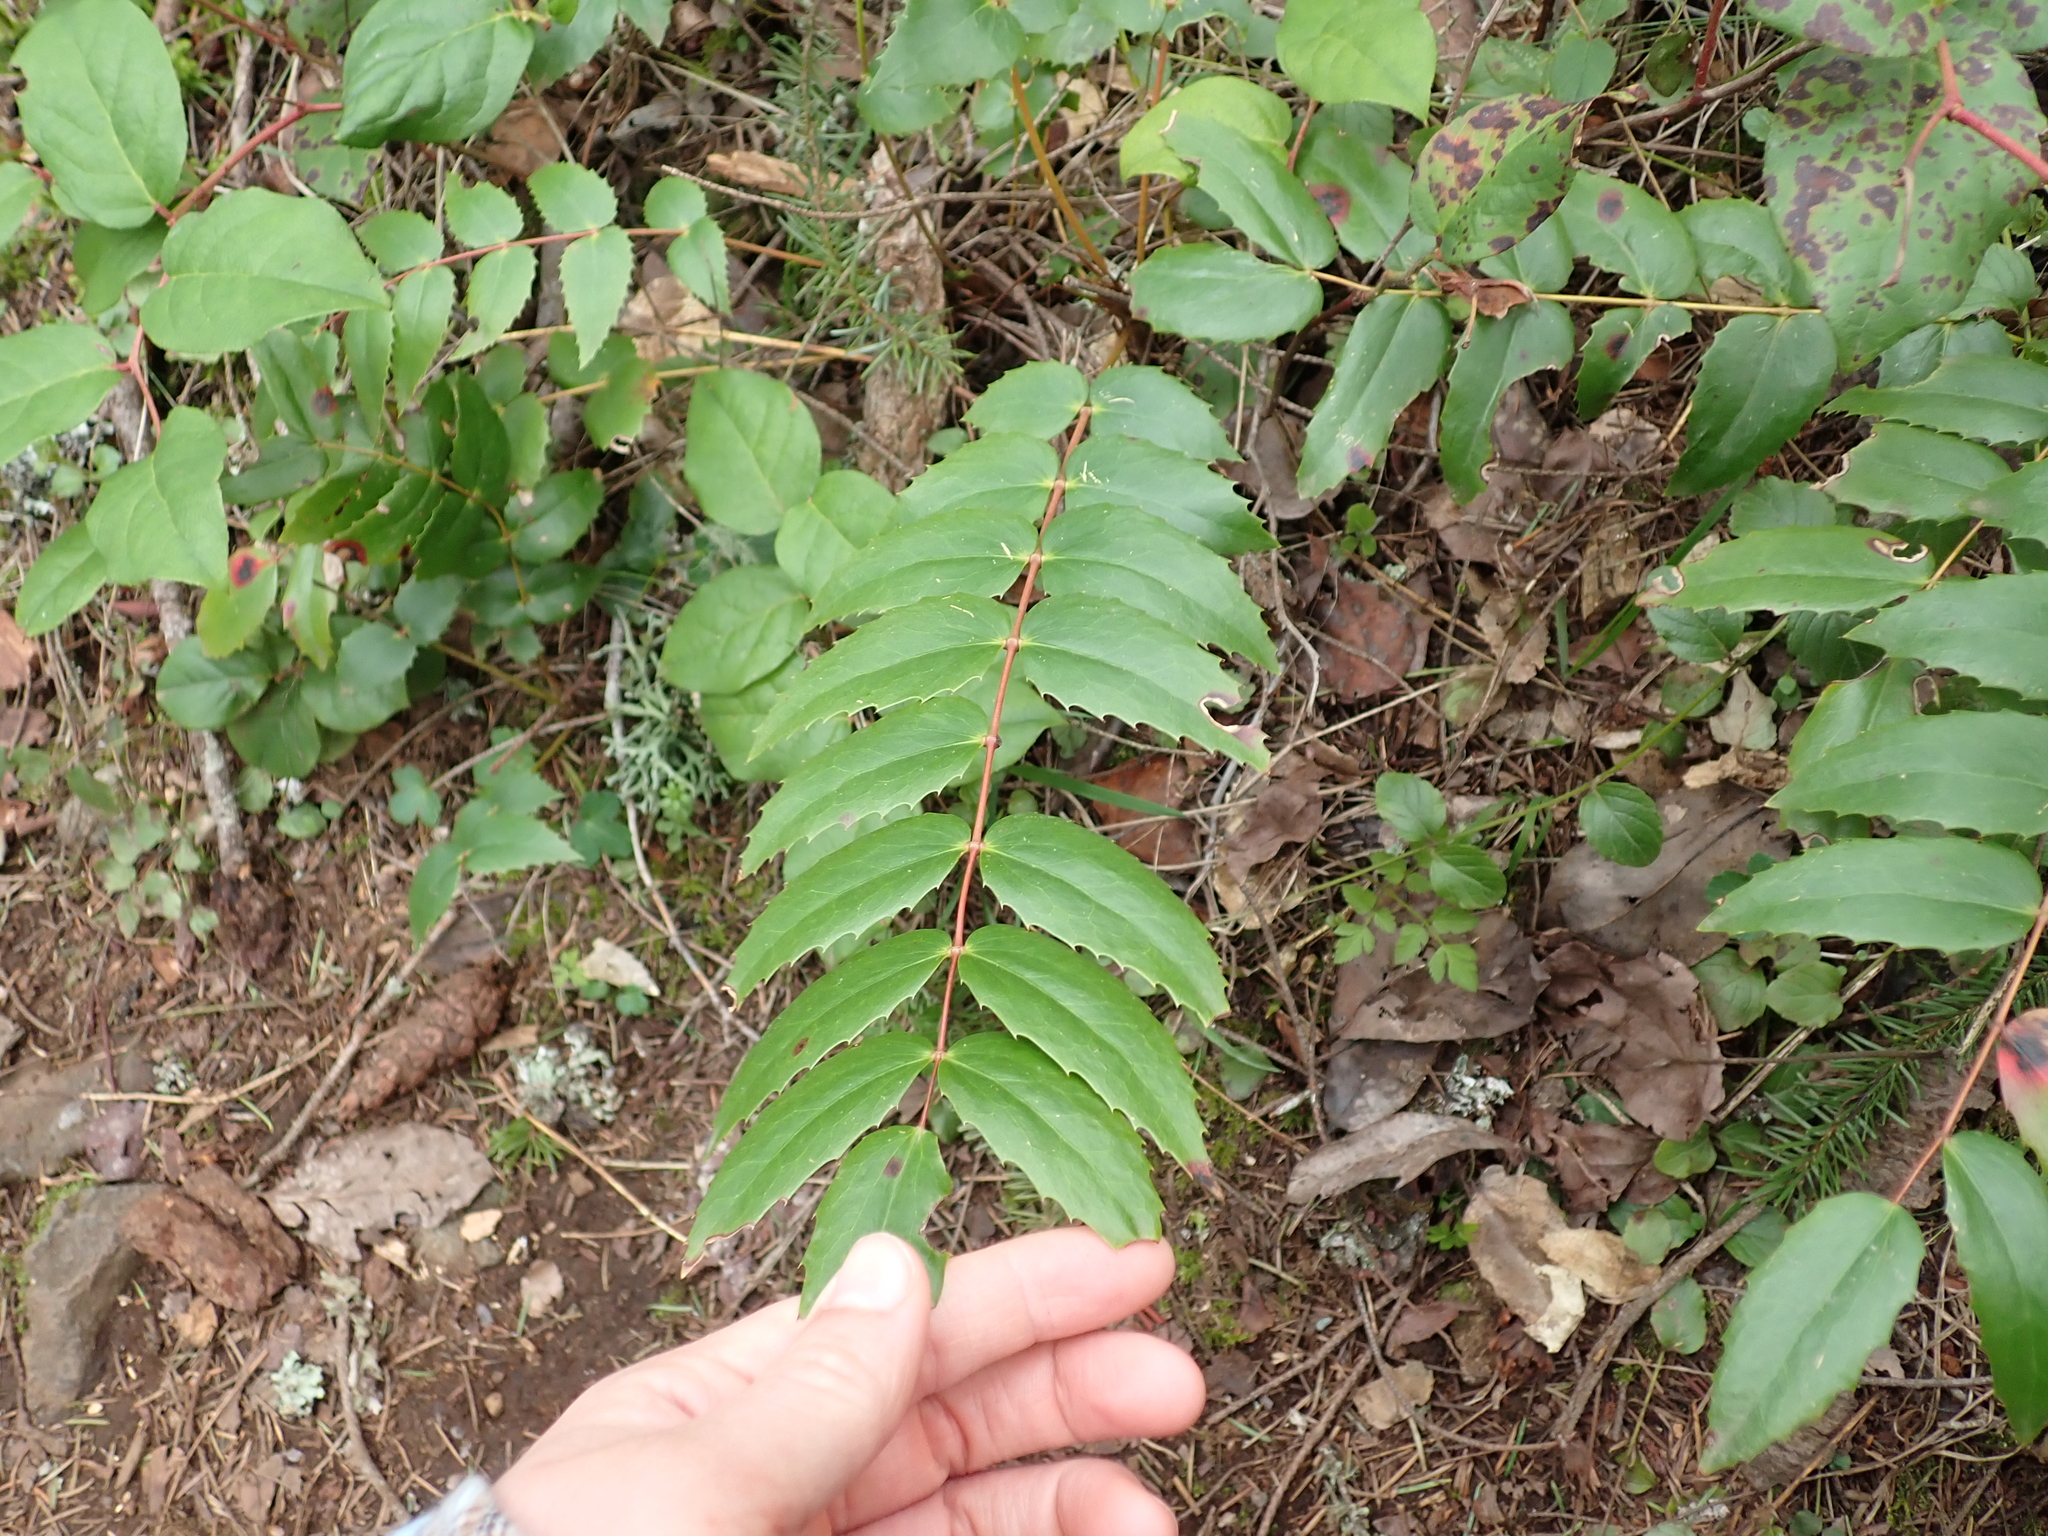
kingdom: Plantae
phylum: Tracheophyta
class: Magnoliopsida
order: Ranunculales
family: Berberidaceae
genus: Mahonia
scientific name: Mahonia nervosa
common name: Cascade oregon-grape
